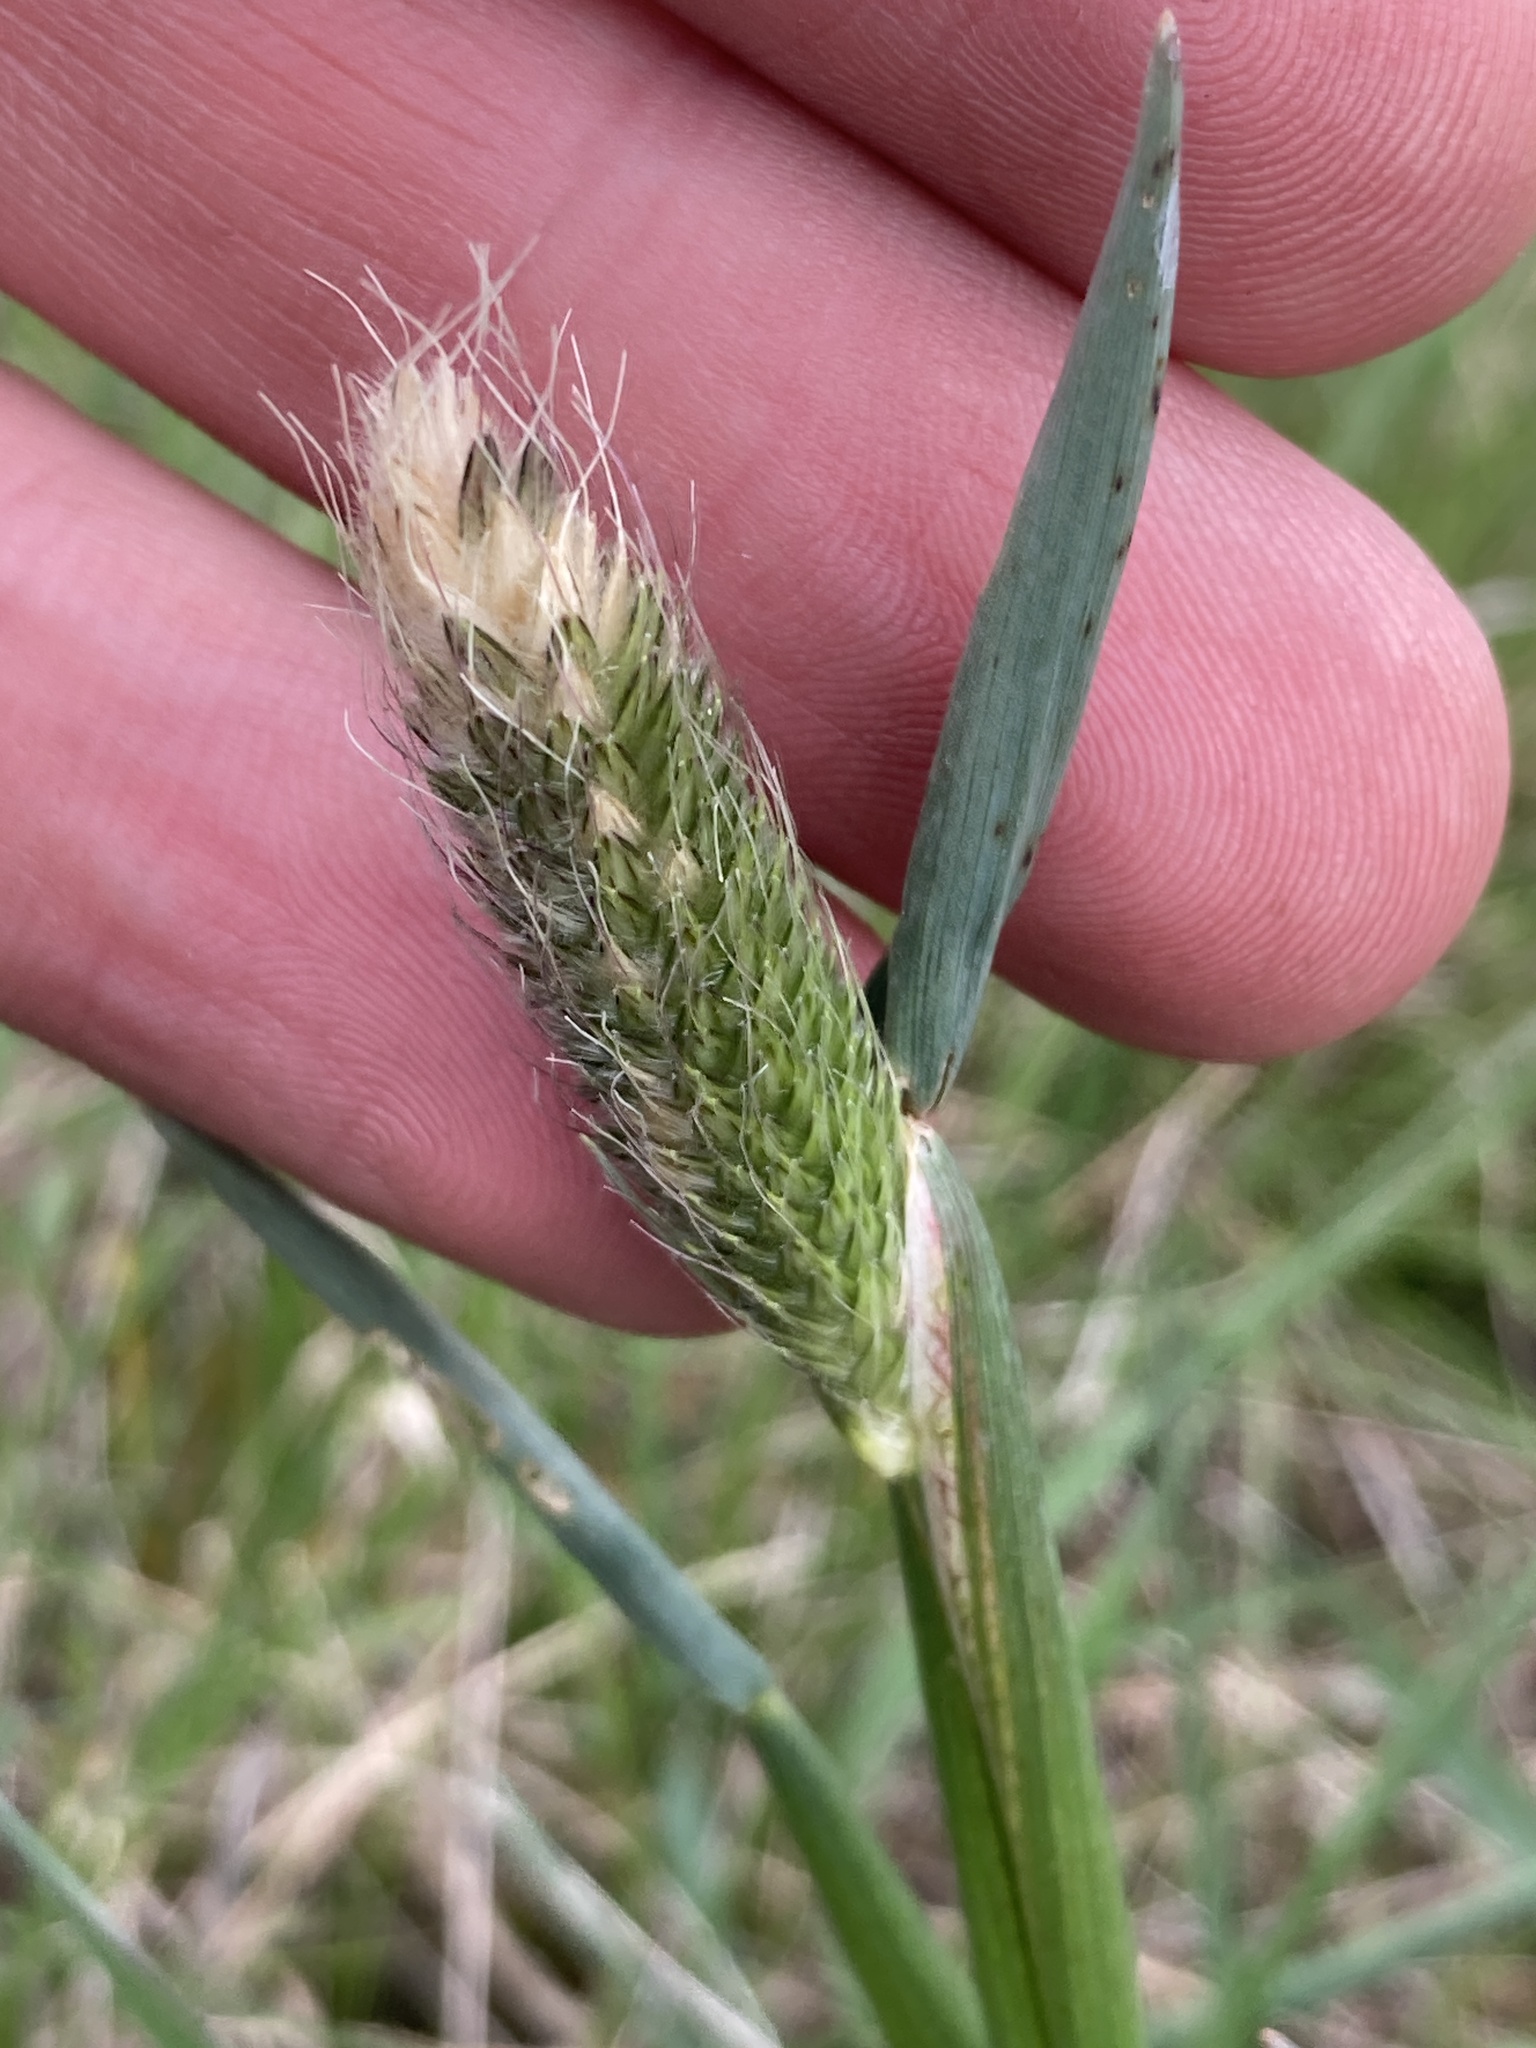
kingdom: Plantae
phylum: Tracheophyta
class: Liliopsida
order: Poales
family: Poaceae
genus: Alopecurus
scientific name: Alopecurus pratensis
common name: Meadow foxtail
